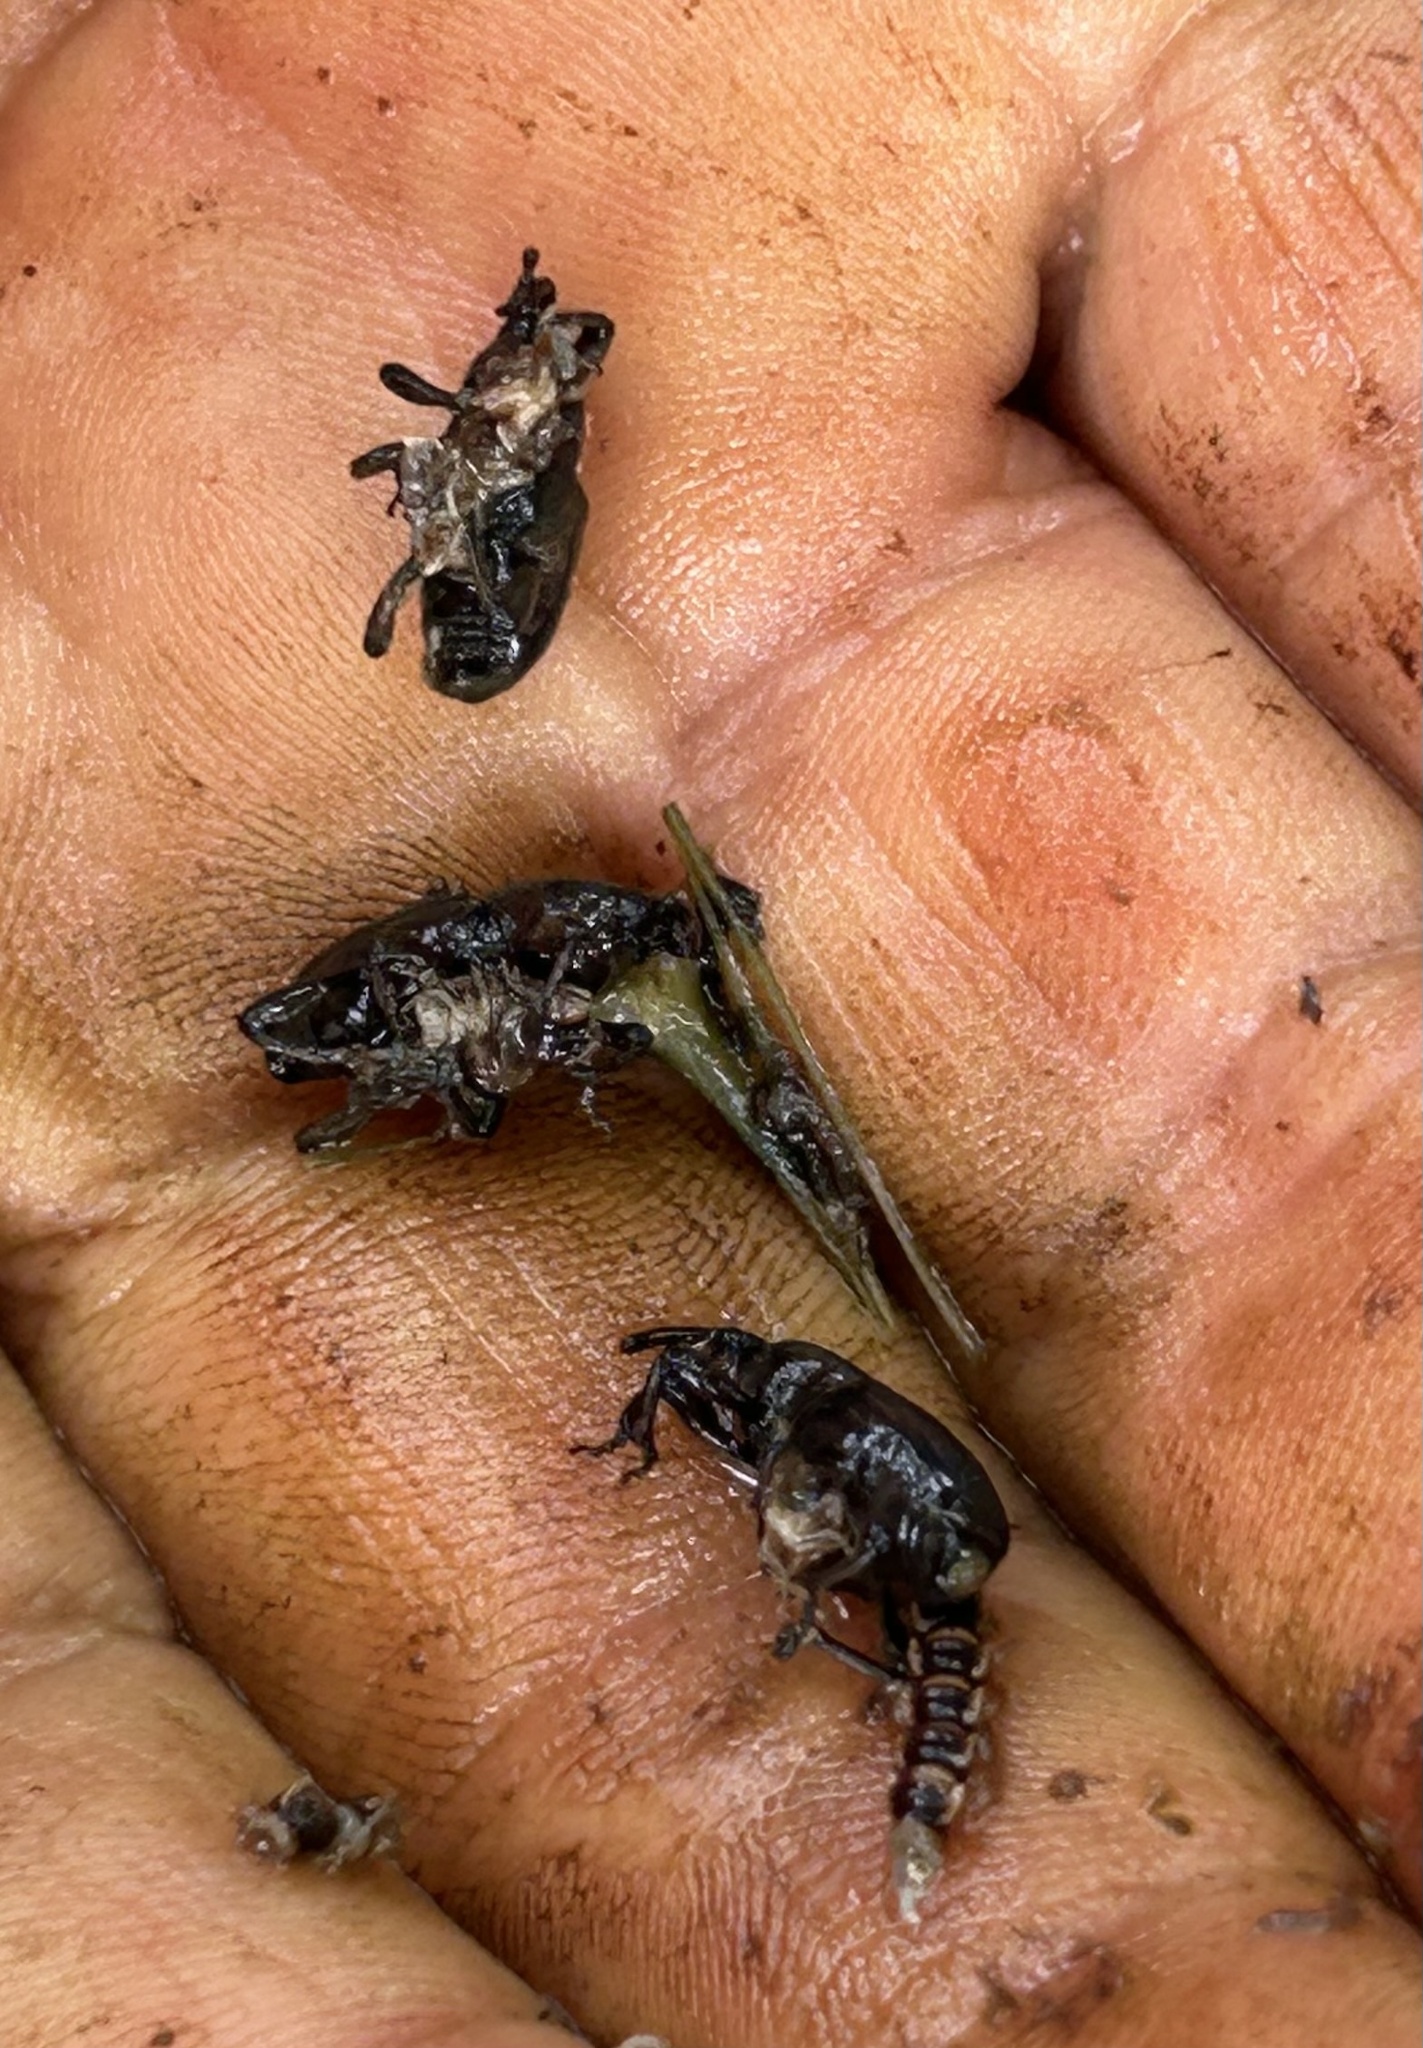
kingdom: Animalia
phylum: Arthropoda
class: Insecta
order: Coleoptera
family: Dryophthoridae
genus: Polytus
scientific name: Polytus mellerborgi
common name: Weevil
